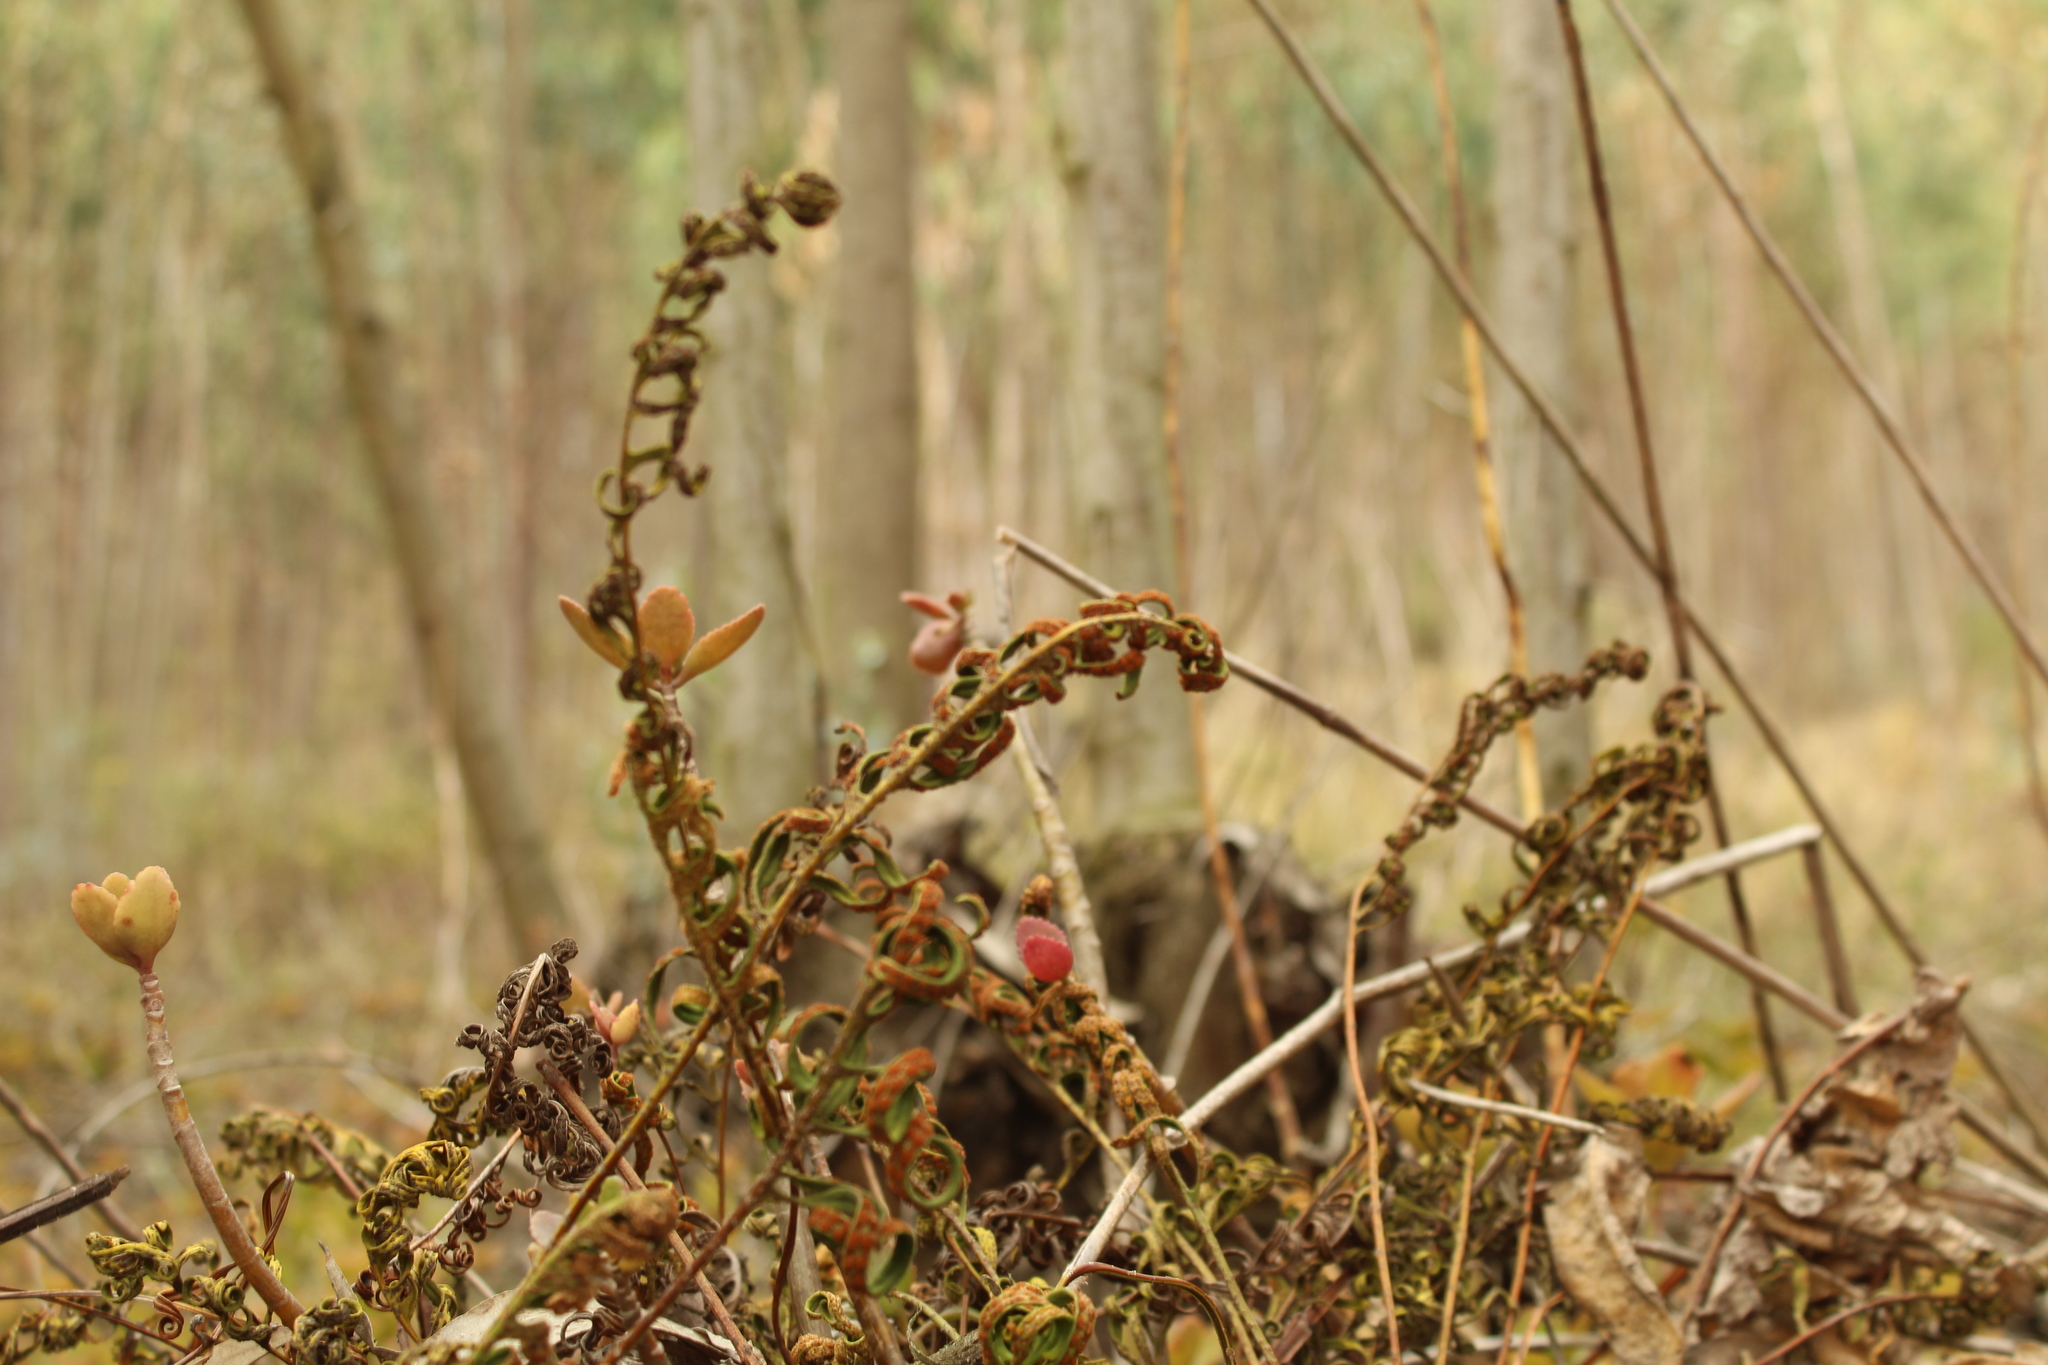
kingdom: Plantae
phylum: Tracheophyta
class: Polypodiopsida
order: Polypodiales
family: Polypodiaceae
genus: Pleopeltis
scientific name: Pleopeltis orientalis
